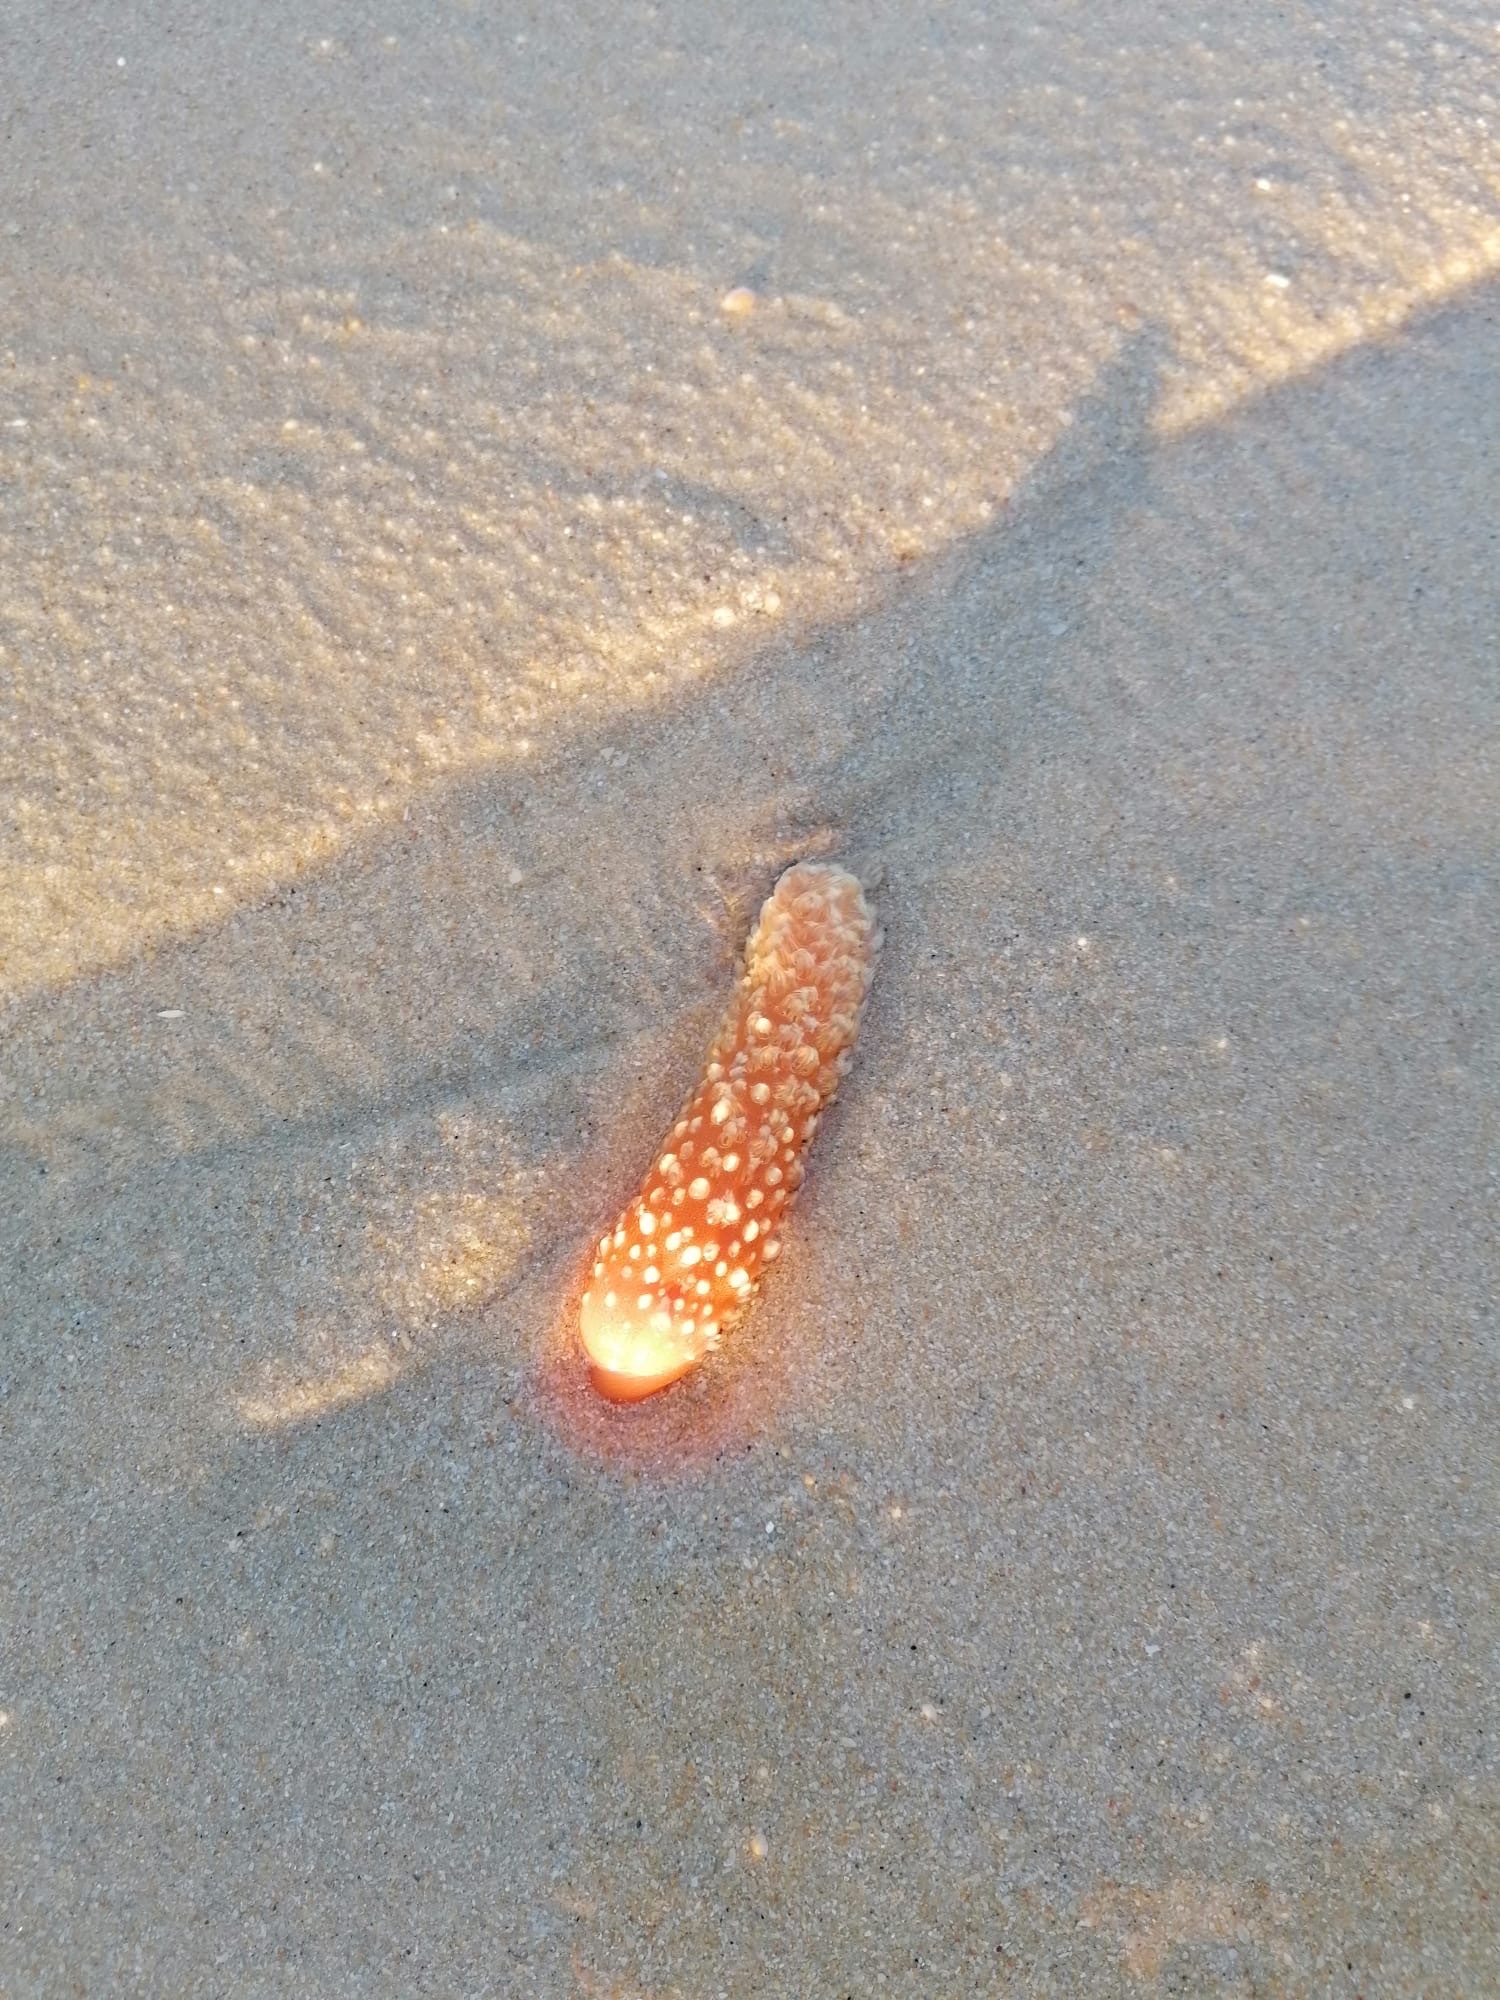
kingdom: Animalia
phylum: Cnidaria
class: Anthozoa
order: Scleralcyonacea
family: Veretillidae
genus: Veretillum
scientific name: Veretillum cynomorium
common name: Finger-shaped sea-pen
